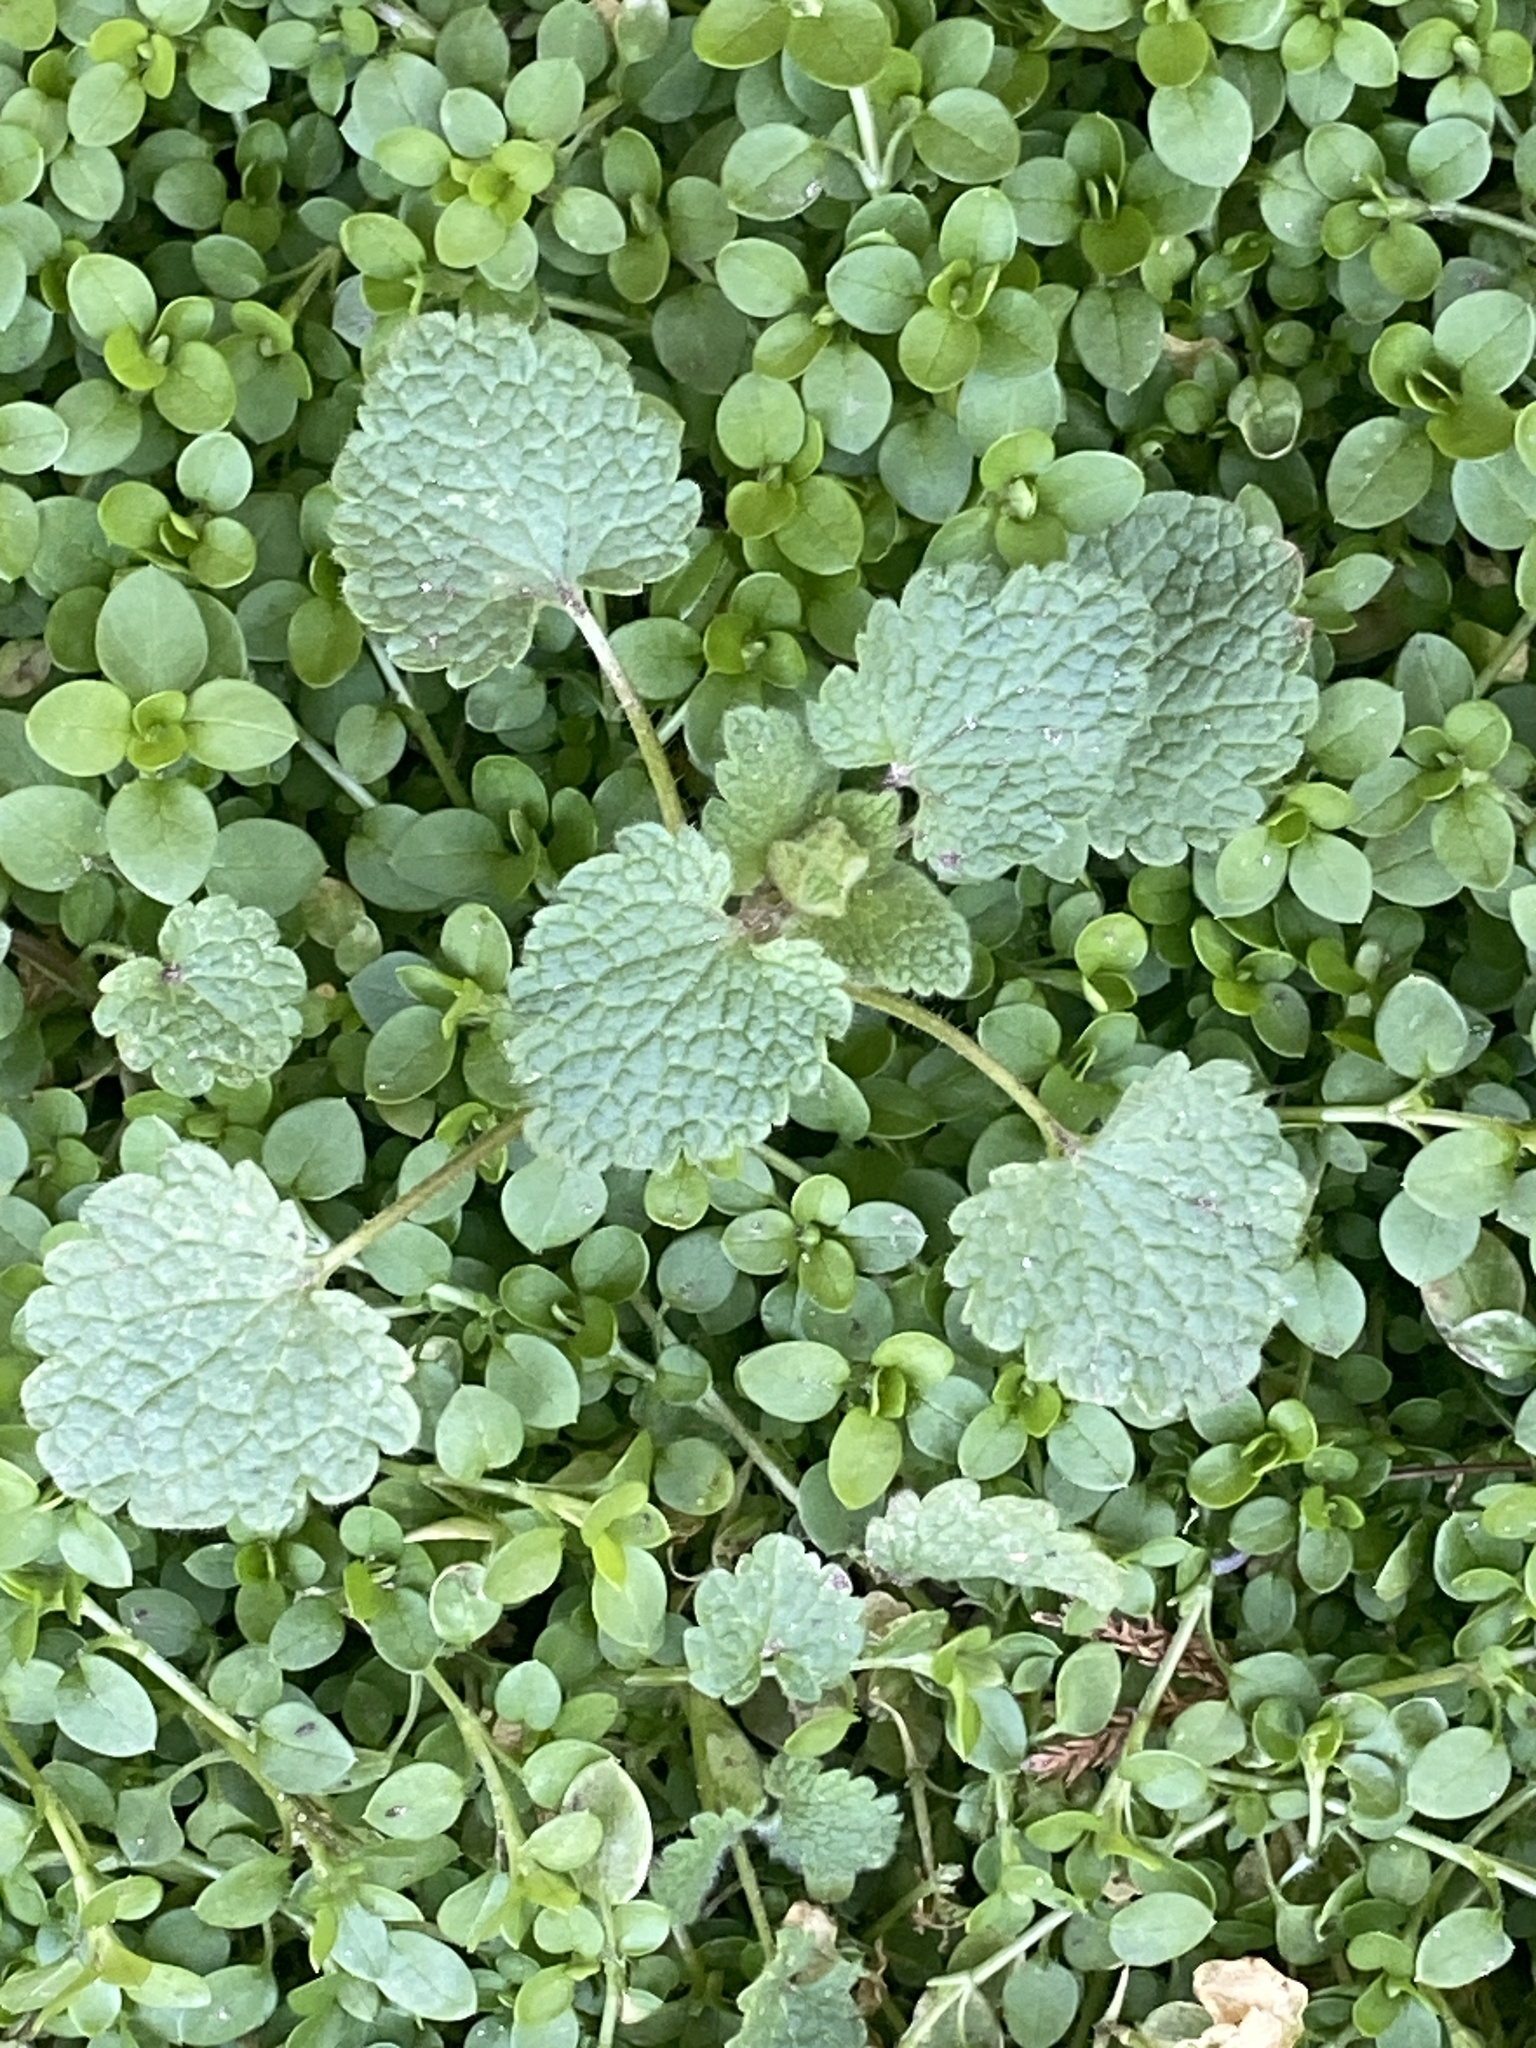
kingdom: Plantae
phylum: Tracheophyta
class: Magnoliopsida
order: Lamiales
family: Lamiaceae
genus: Lamium
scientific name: Lamium purpureum
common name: Red dead-nettle
